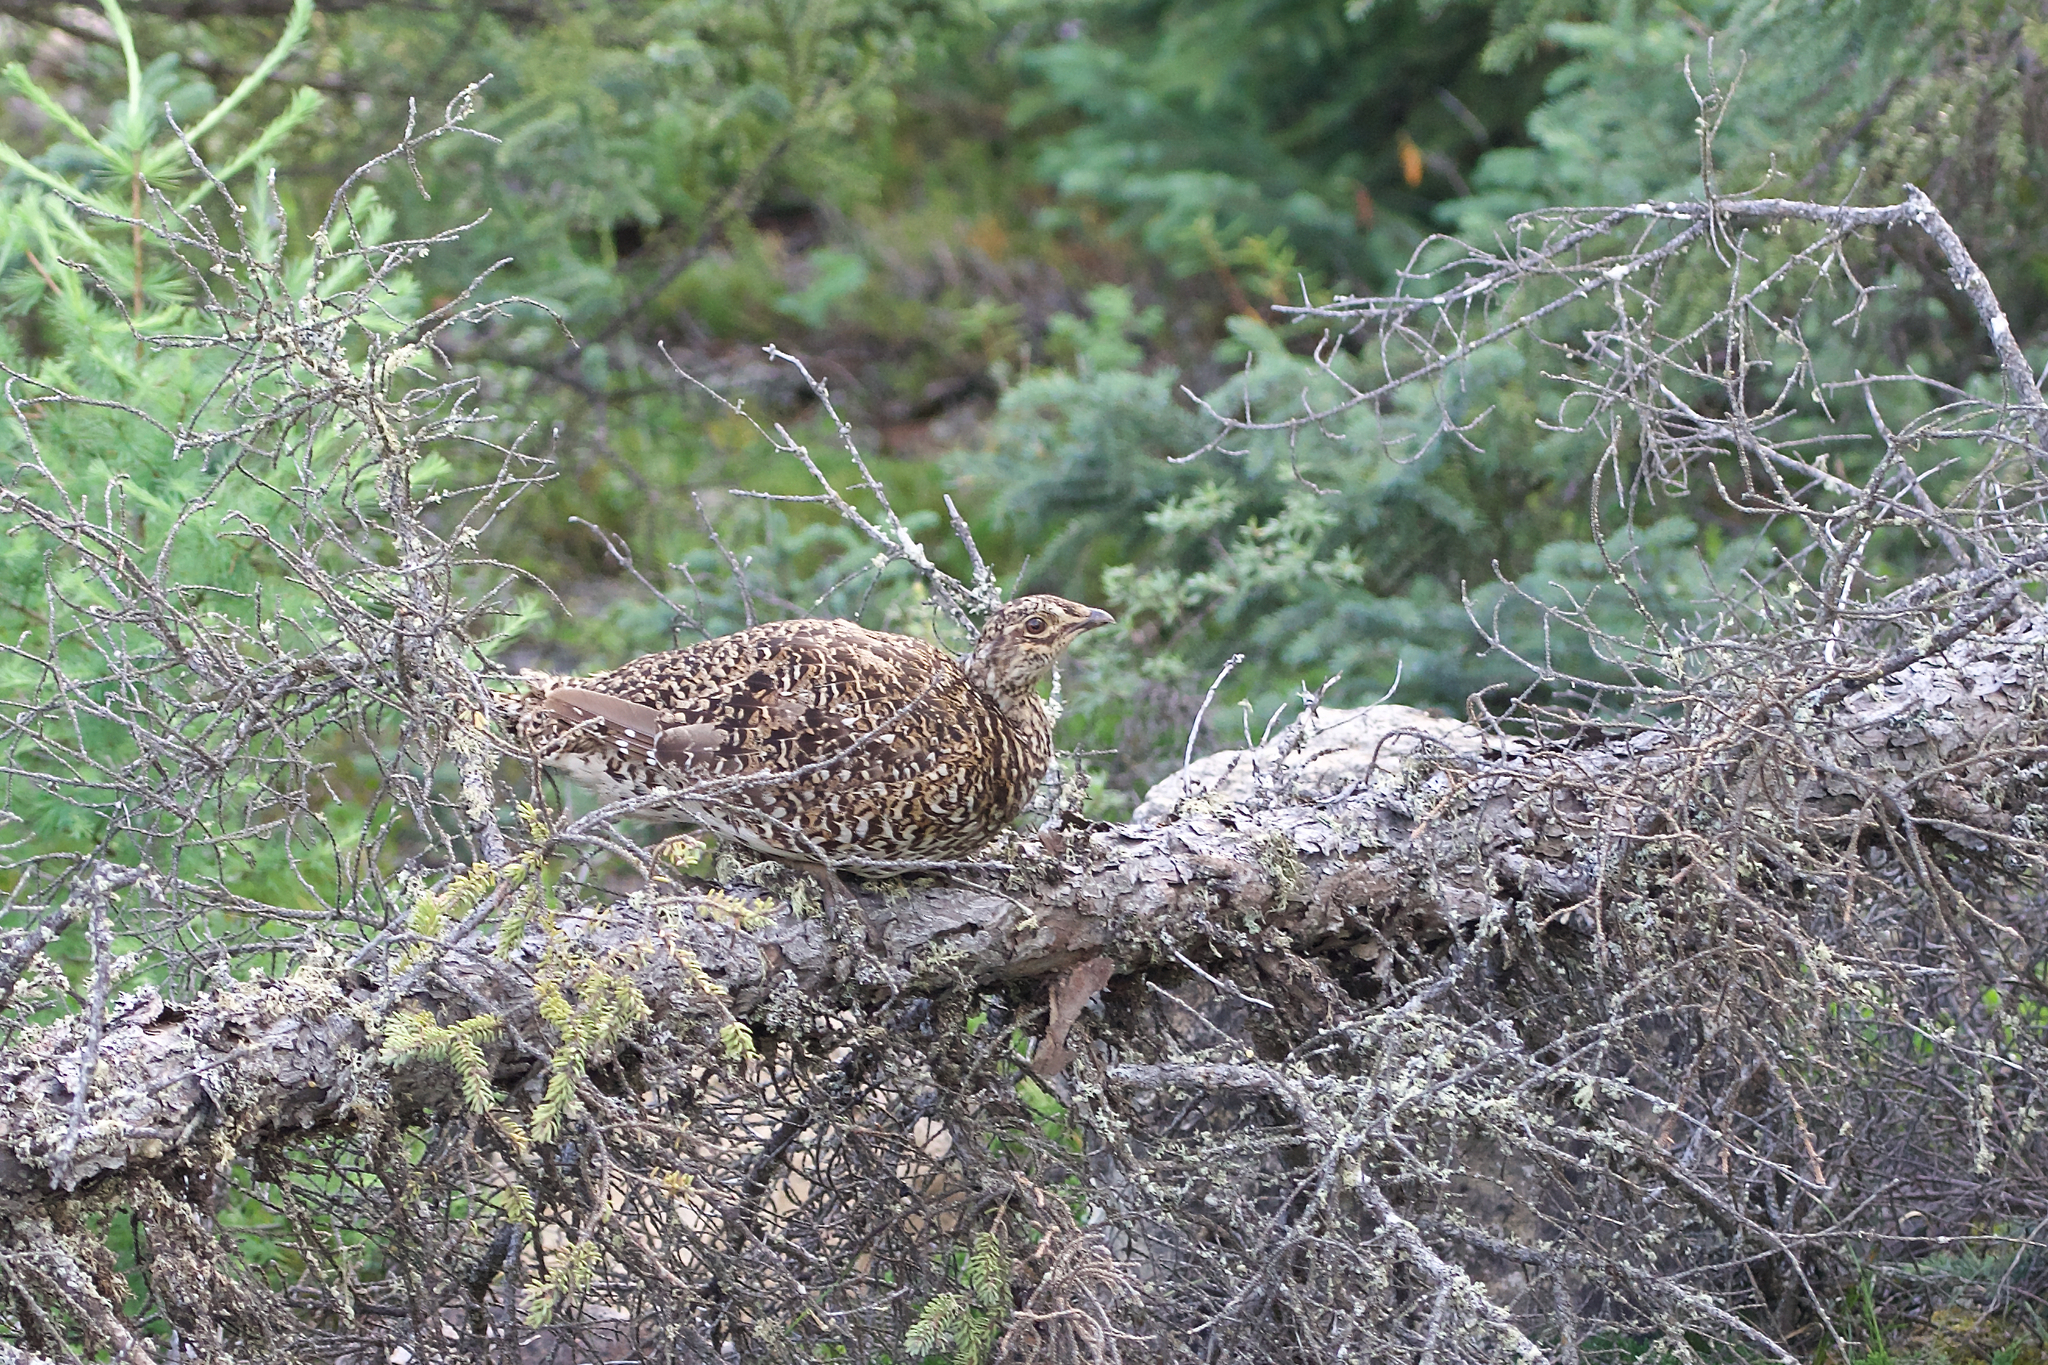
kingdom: Animalia
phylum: Chordata
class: Aves
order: Galliformes
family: Phasianidae
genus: Tympanuchus
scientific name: Tympanuchus phasianellus
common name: Sharp-tailed grouse
